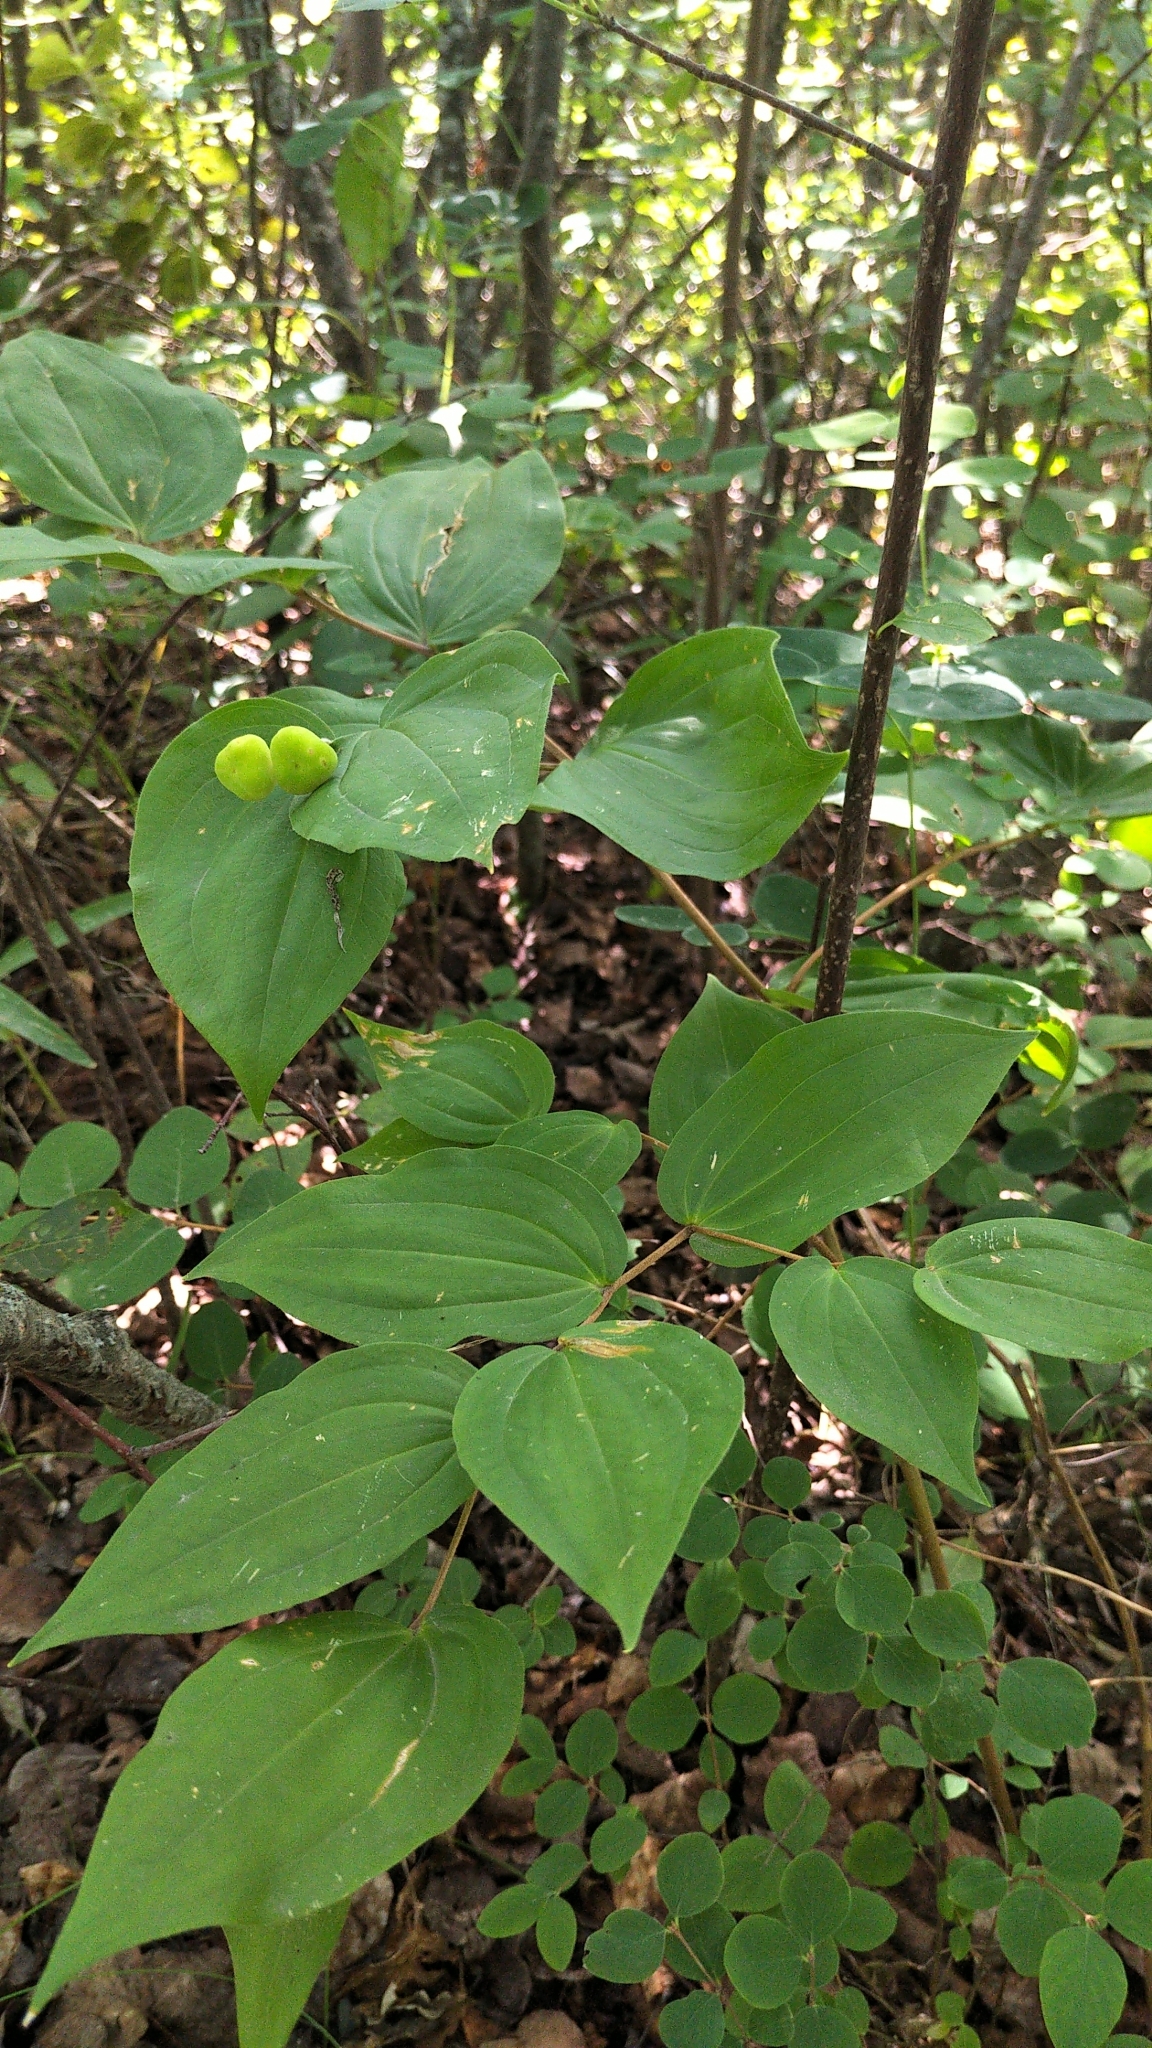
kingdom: Plantae
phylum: Tracheophyta
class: Liliopsida
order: Liliales
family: Liliaceae
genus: Prosartes
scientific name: Prosartes trachycarpa
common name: Rough-fruit fairy-bells
